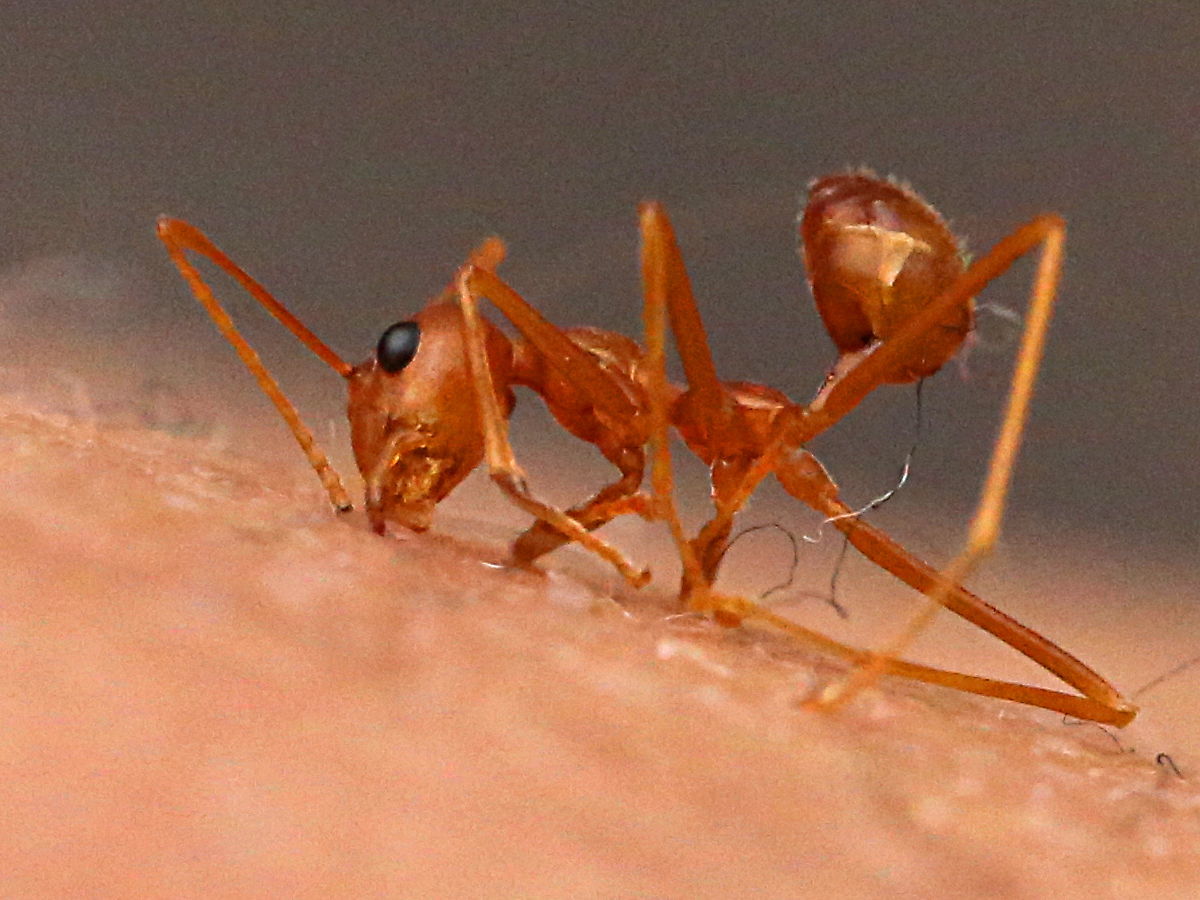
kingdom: Animalia
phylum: Arthropoda
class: Insecta
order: Hymenoptera
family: Formicidae
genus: Oecophylla
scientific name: Oecophylla smaragdina
